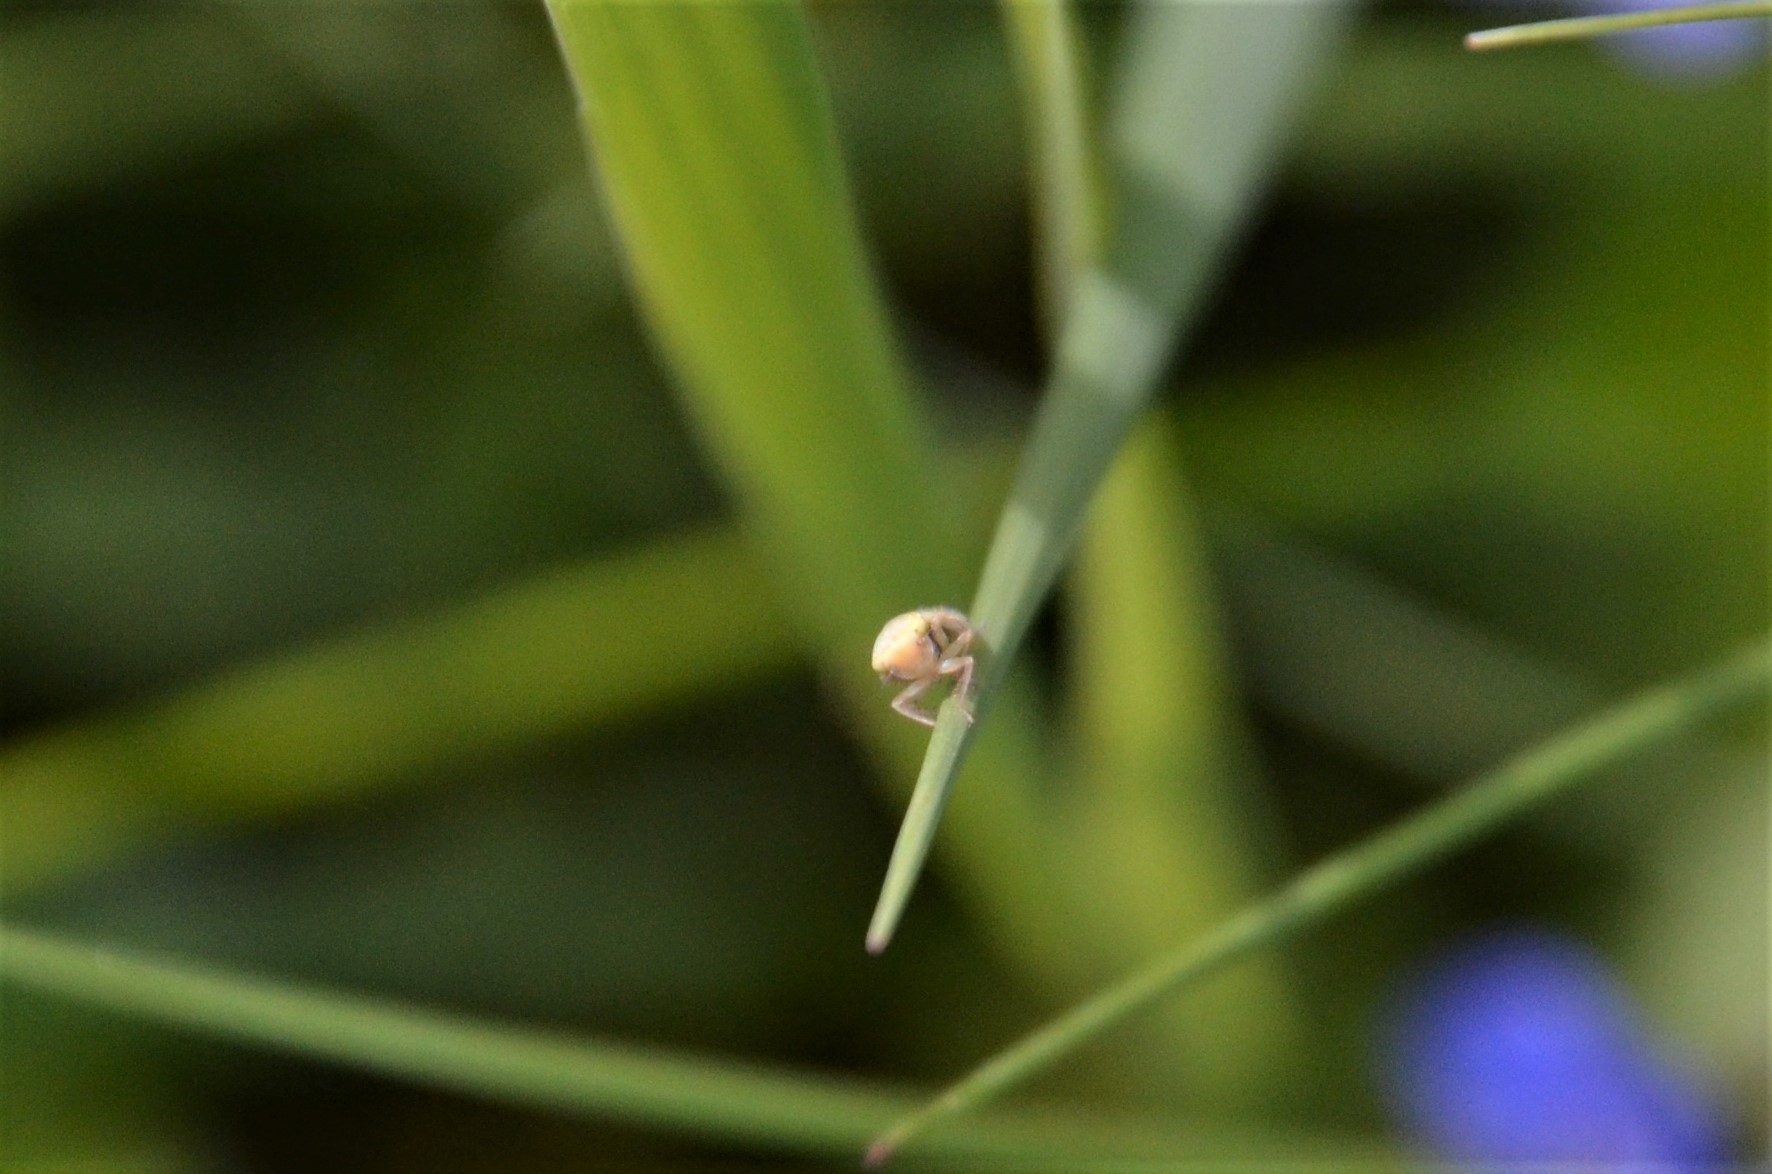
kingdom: Animalia
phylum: Arthropoda
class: Insecta
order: Hemiptera
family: Cicadellidae
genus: Thamnotettix
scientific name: Thamnotettix confinis
